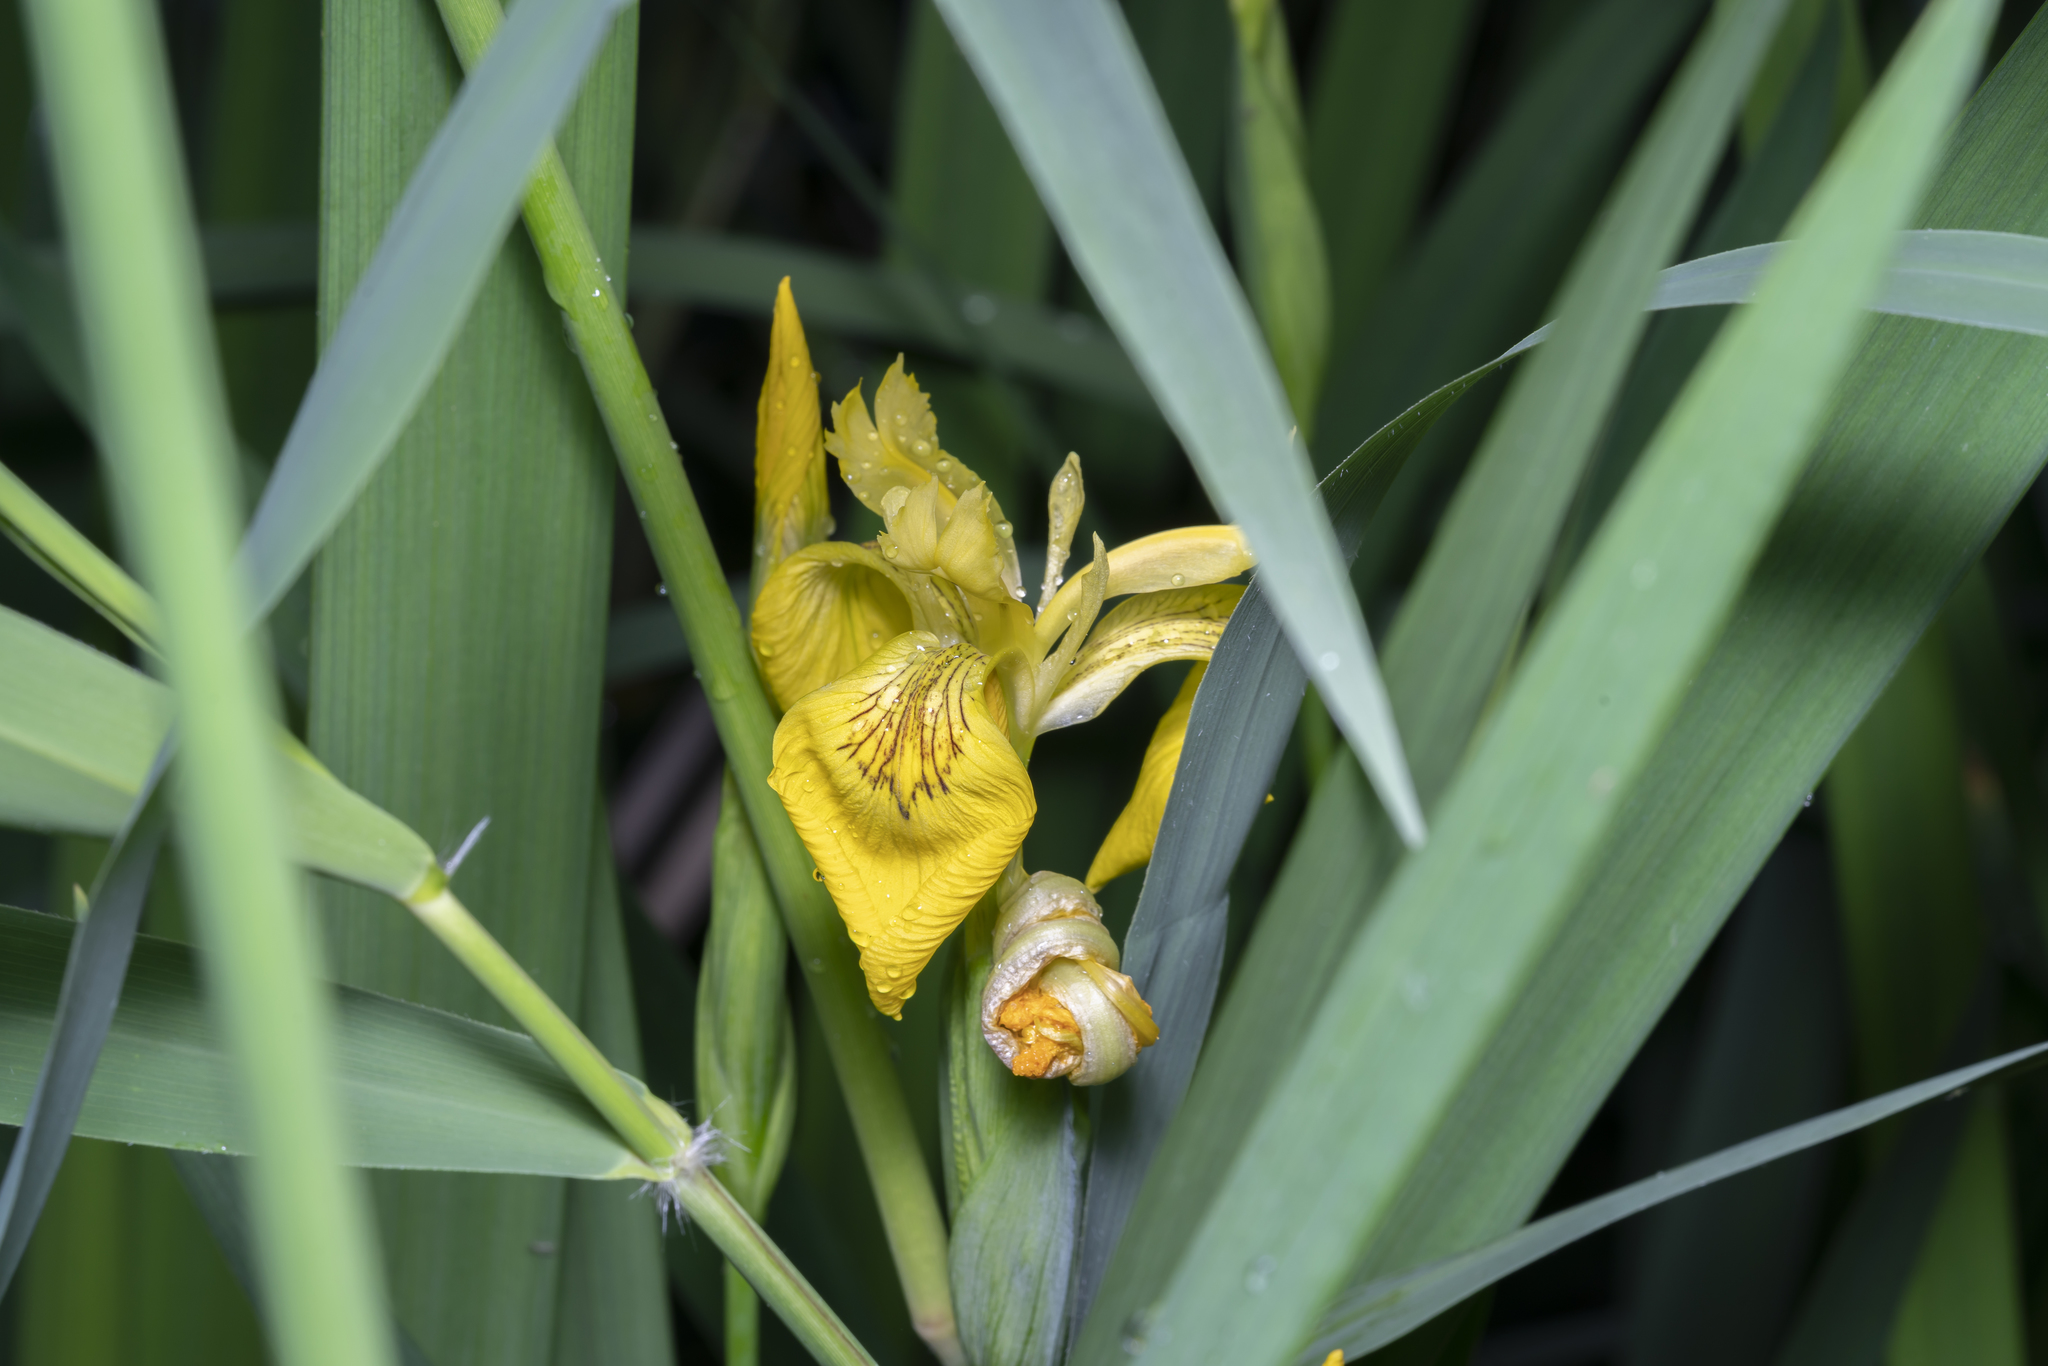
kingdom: Plantae
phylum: Tracheophyta
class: Liliopsida
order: Asparagales
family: Iridaceae
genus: Iris
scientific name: Iris pseudacorus
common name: Yellow flag
